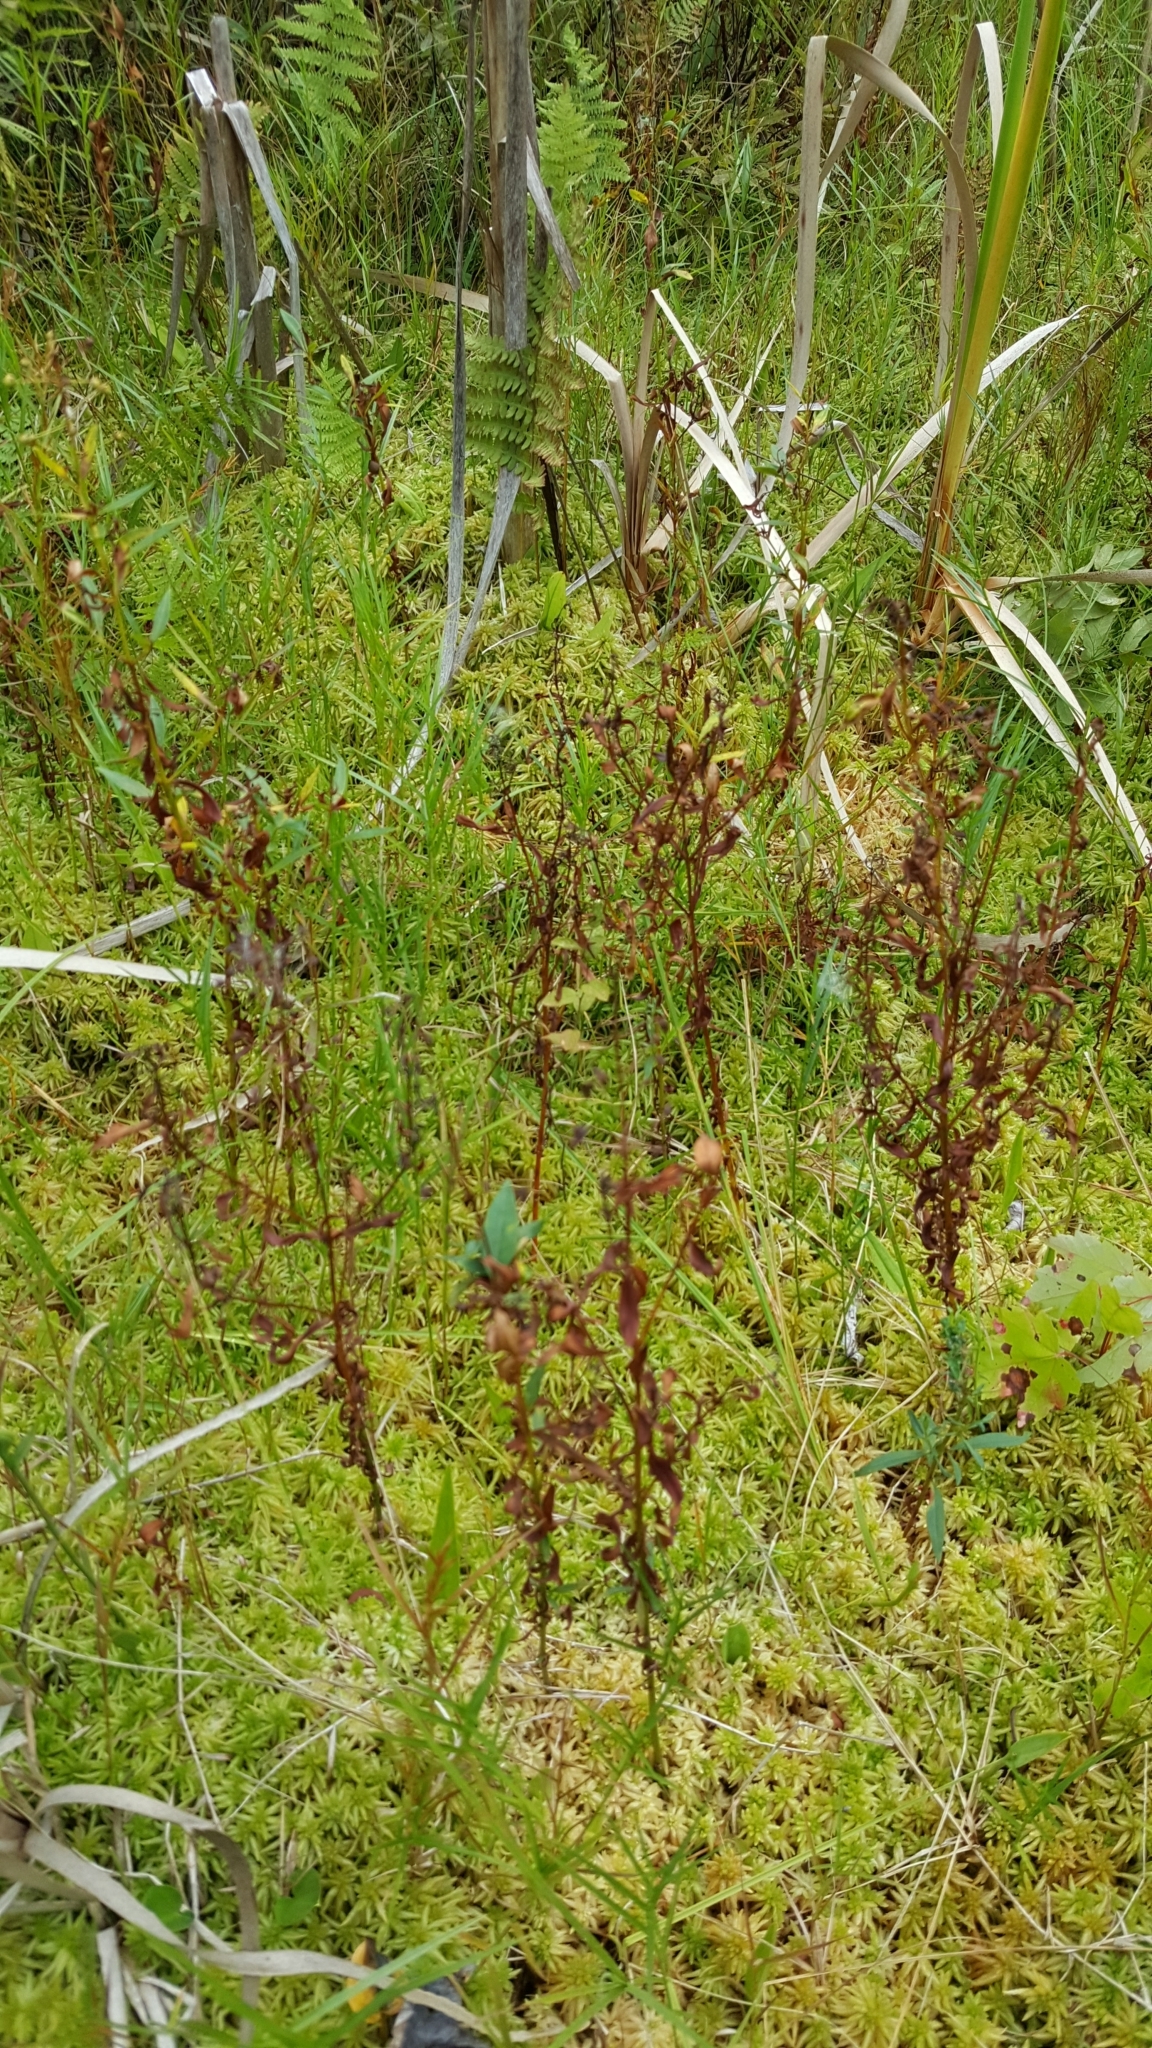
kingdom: Plantae
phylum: Tracheophyta
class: Magnoliopsida
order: Ericales
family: Primulaceae
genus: Lysimachia
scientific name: Lysimachia terrestris
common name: Lake loosestrife
